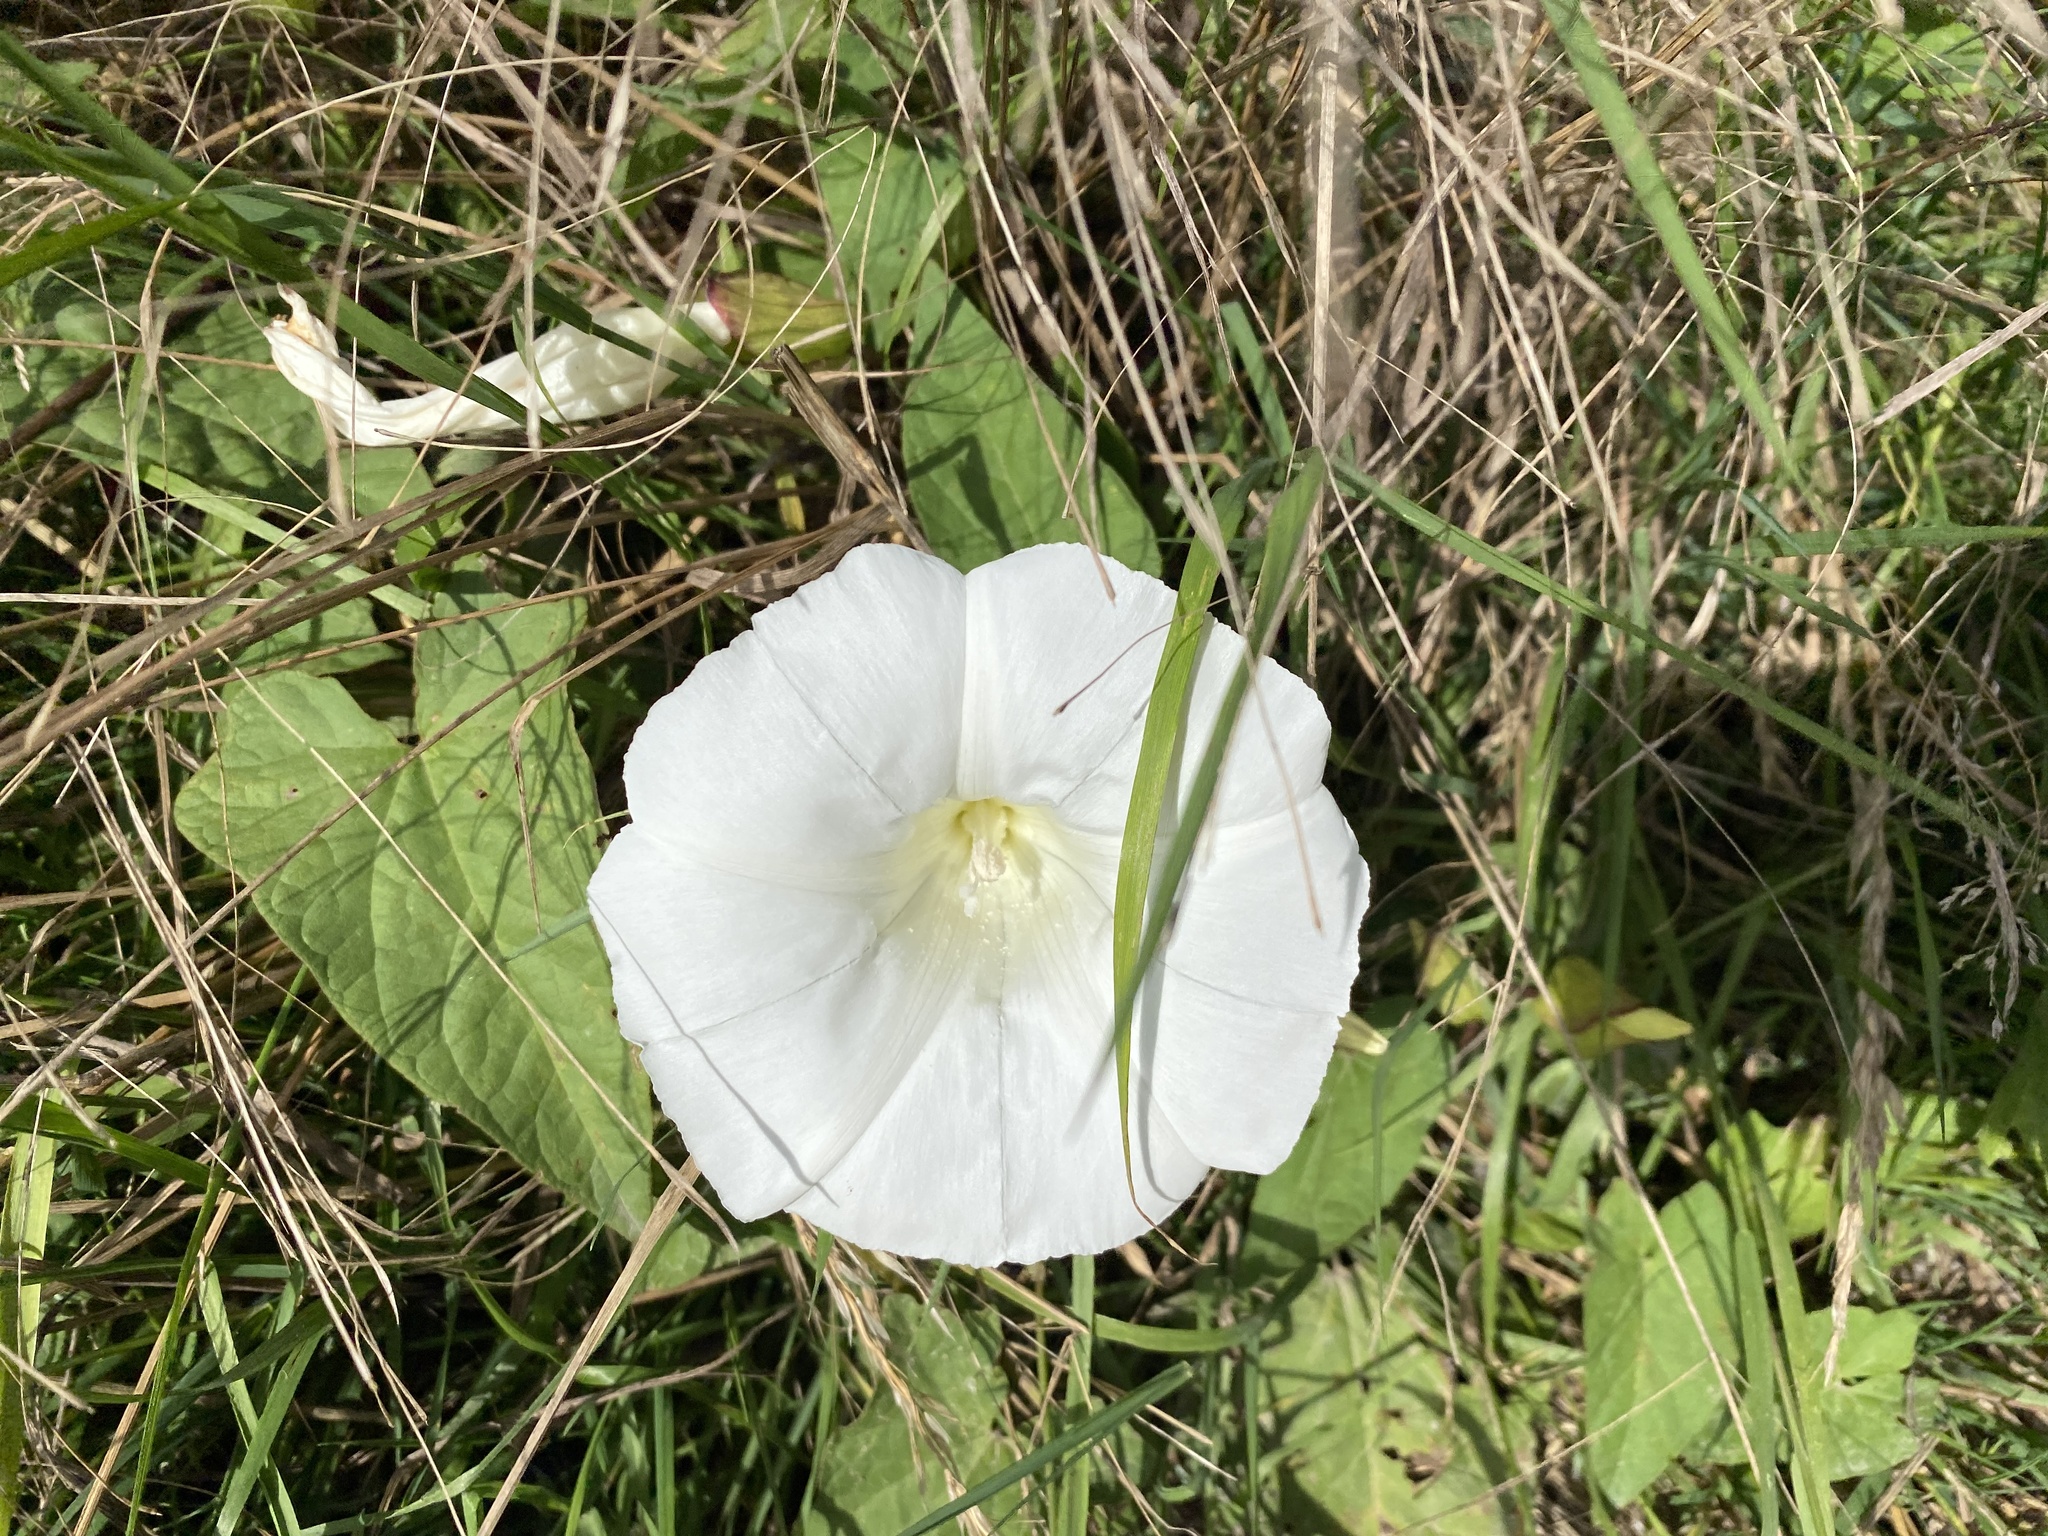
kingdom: Plantae
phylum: Tracheophyta
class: Magnoliopsida
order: Solanales
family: Convolvulaceae
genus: Calystegia
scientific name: Calystegia silvatica
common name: Large bindweed
